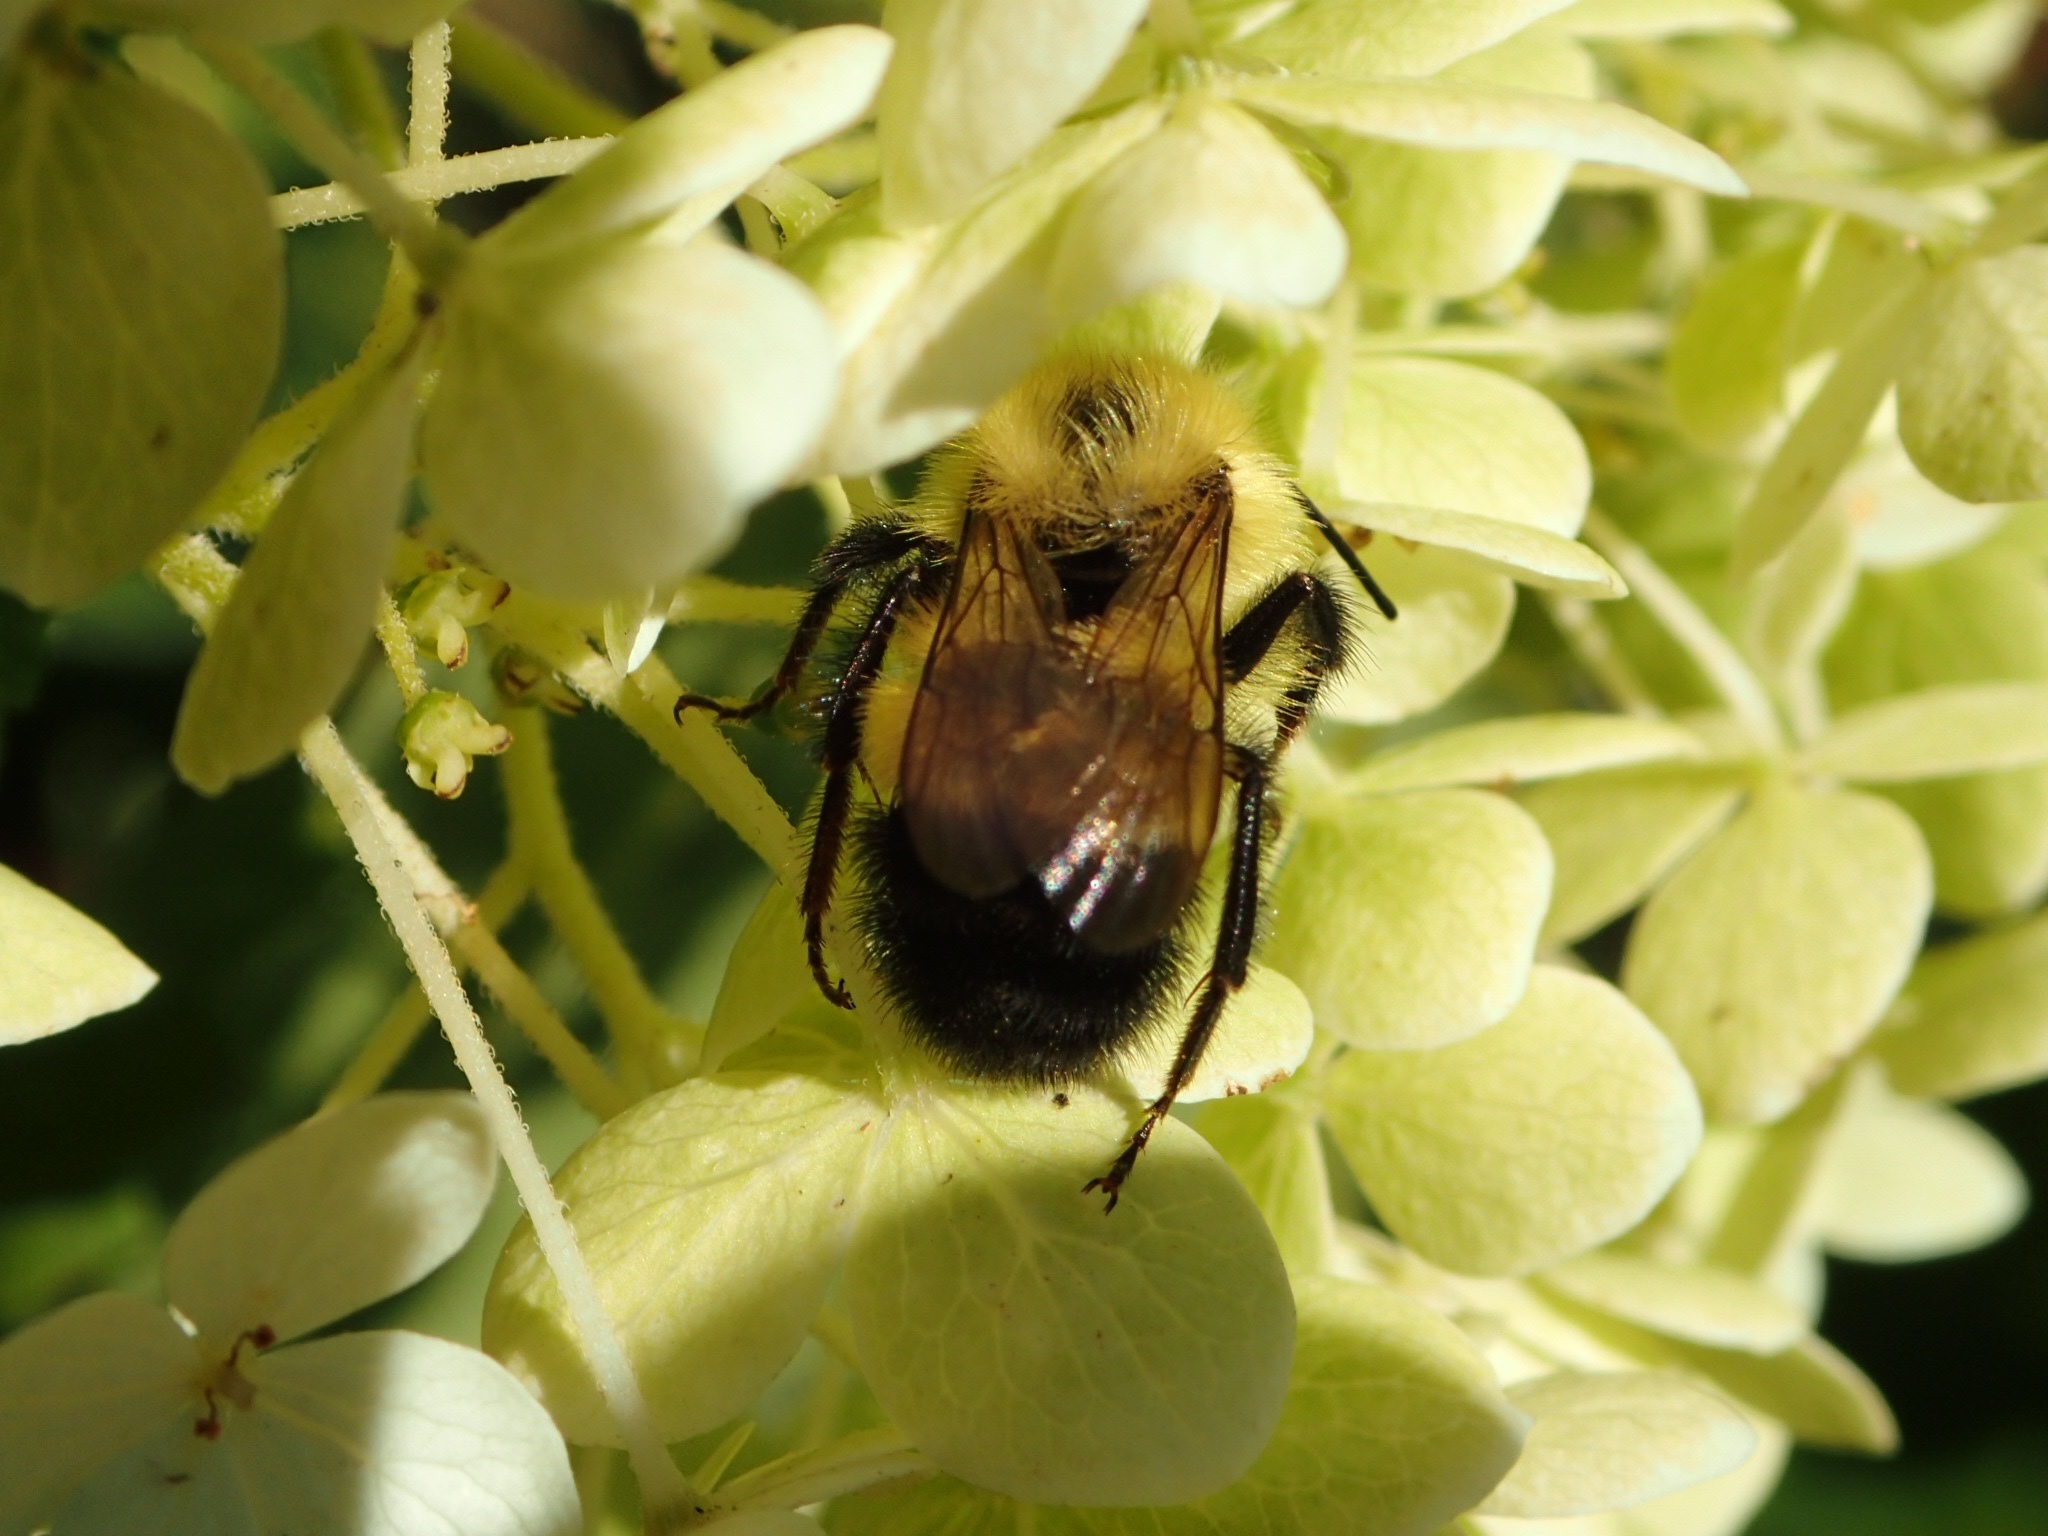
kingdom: Animalia
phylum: Arthropoda
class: Insecta
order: Hymenoptera
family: Apidae
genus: Pyrobombus
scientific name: Pyrobombus
